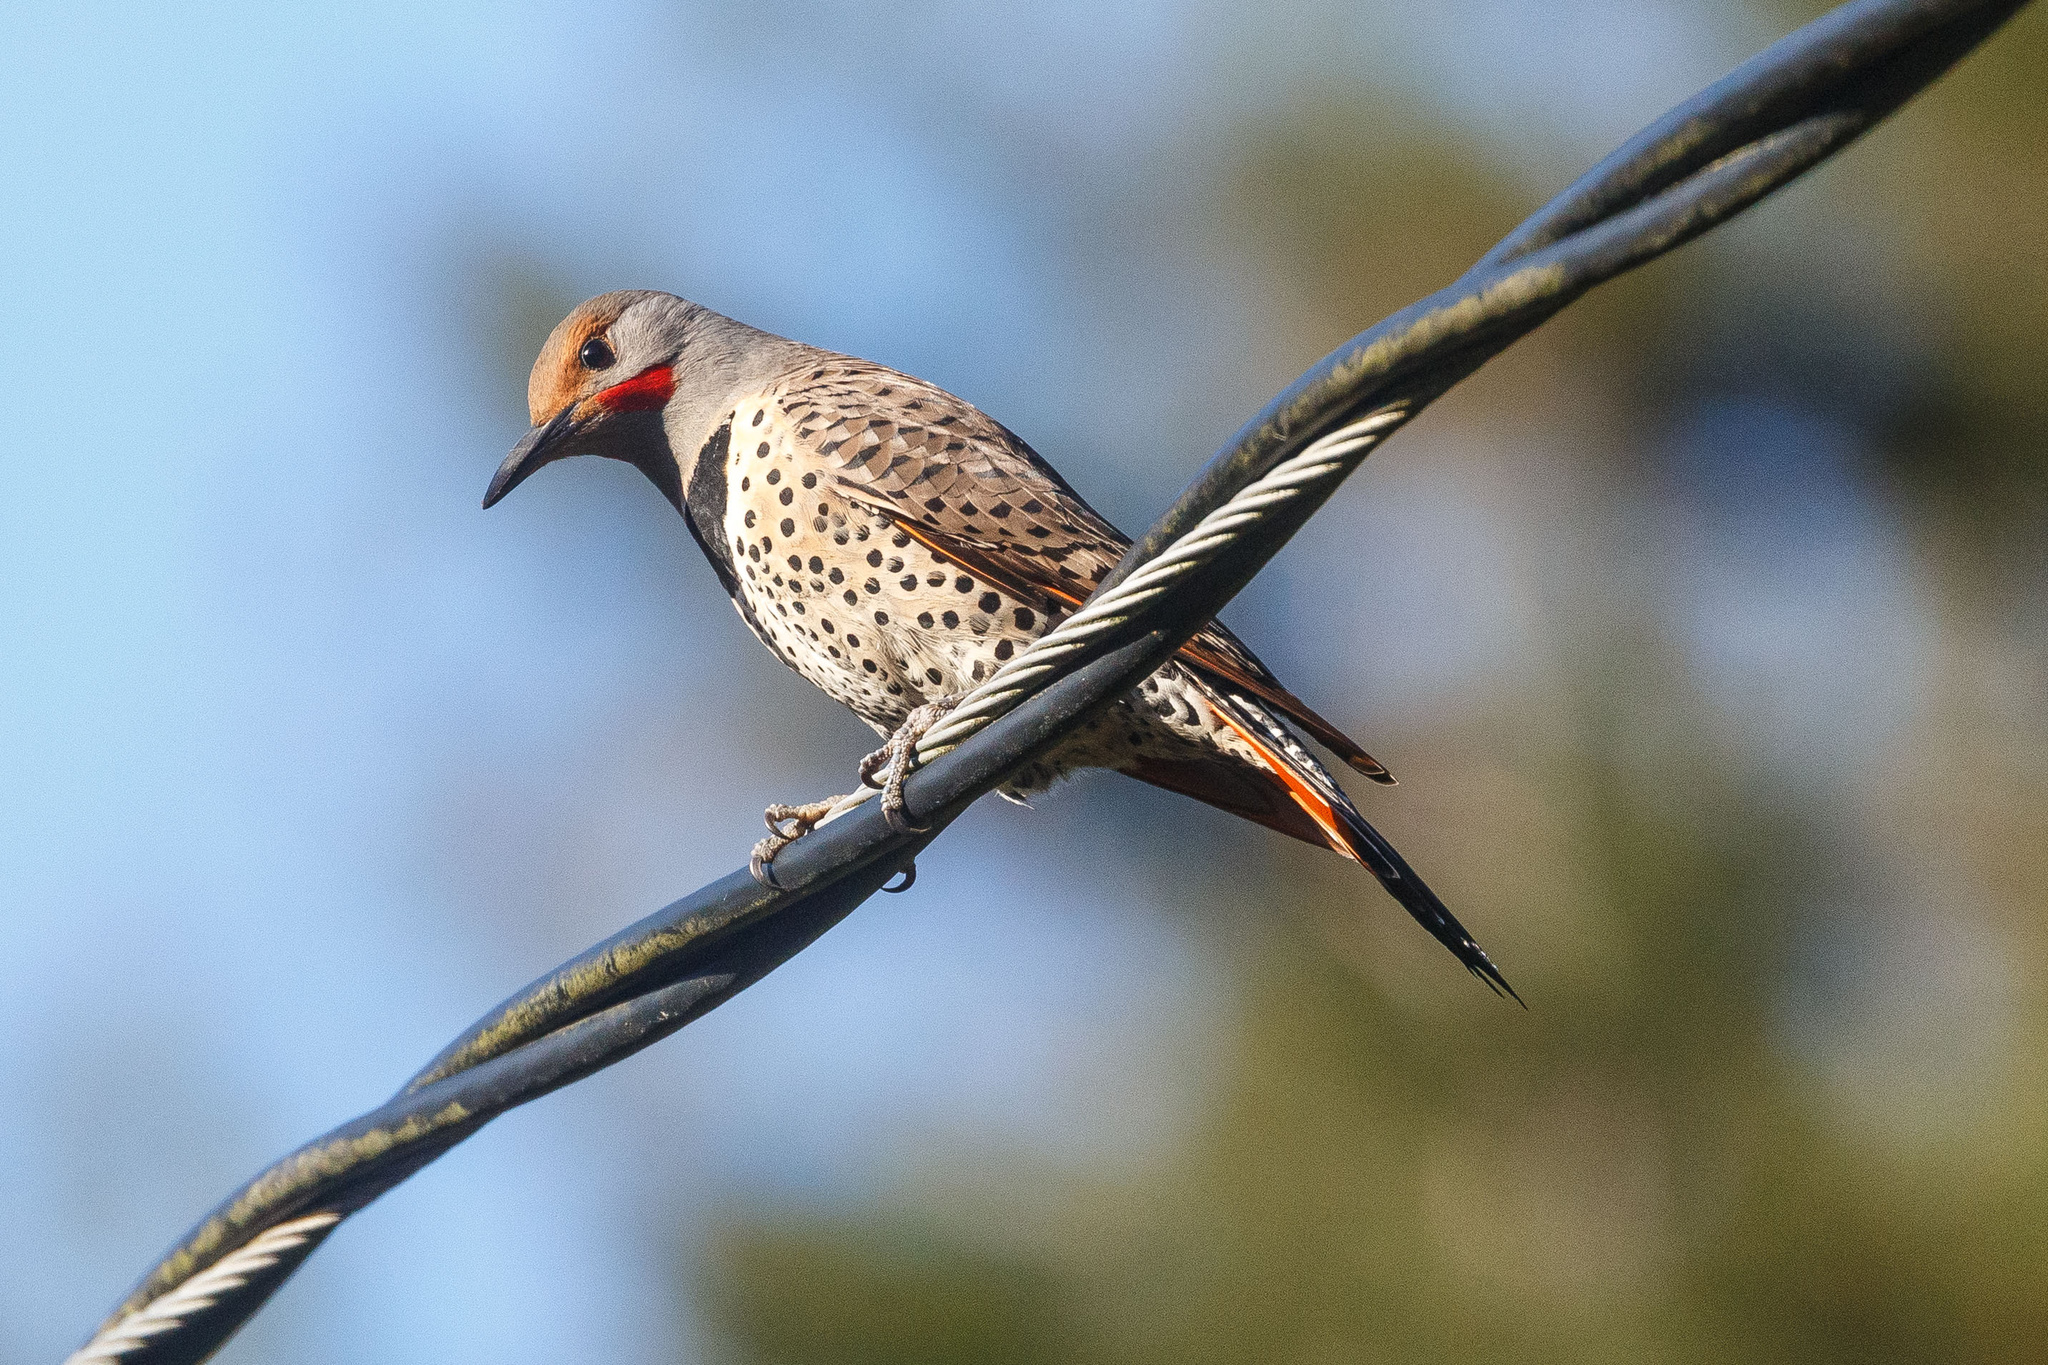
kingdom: Animalia
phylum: Chordata
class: Aves
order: Piciformes
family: Picidae
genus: Colaptes
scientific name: Colaptes auratus
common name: Northern flicker
